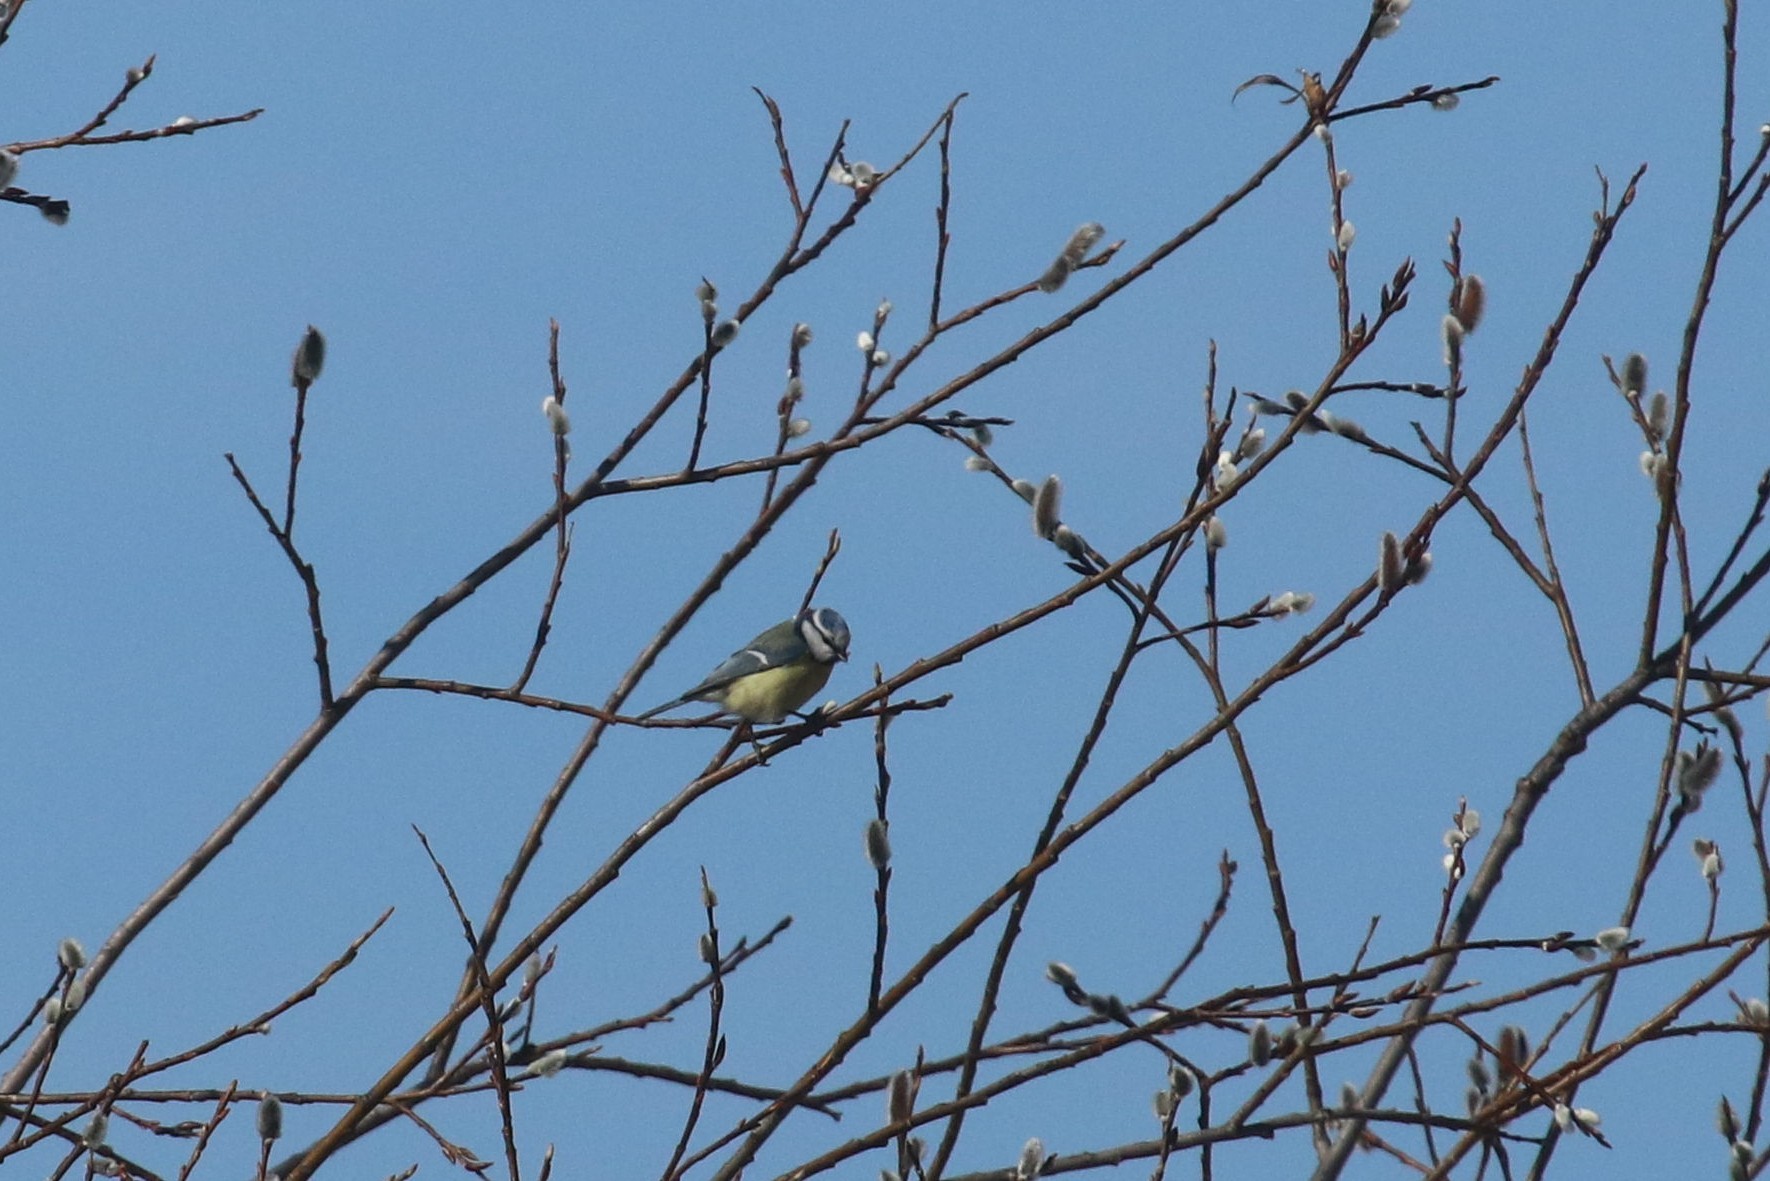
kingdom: Animalia
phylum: Chordata
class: Aves
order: Passeriformes
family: Paridae
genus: Cyanistes
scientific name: Cyanistes caeruleus
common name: Eurasian blue tit
